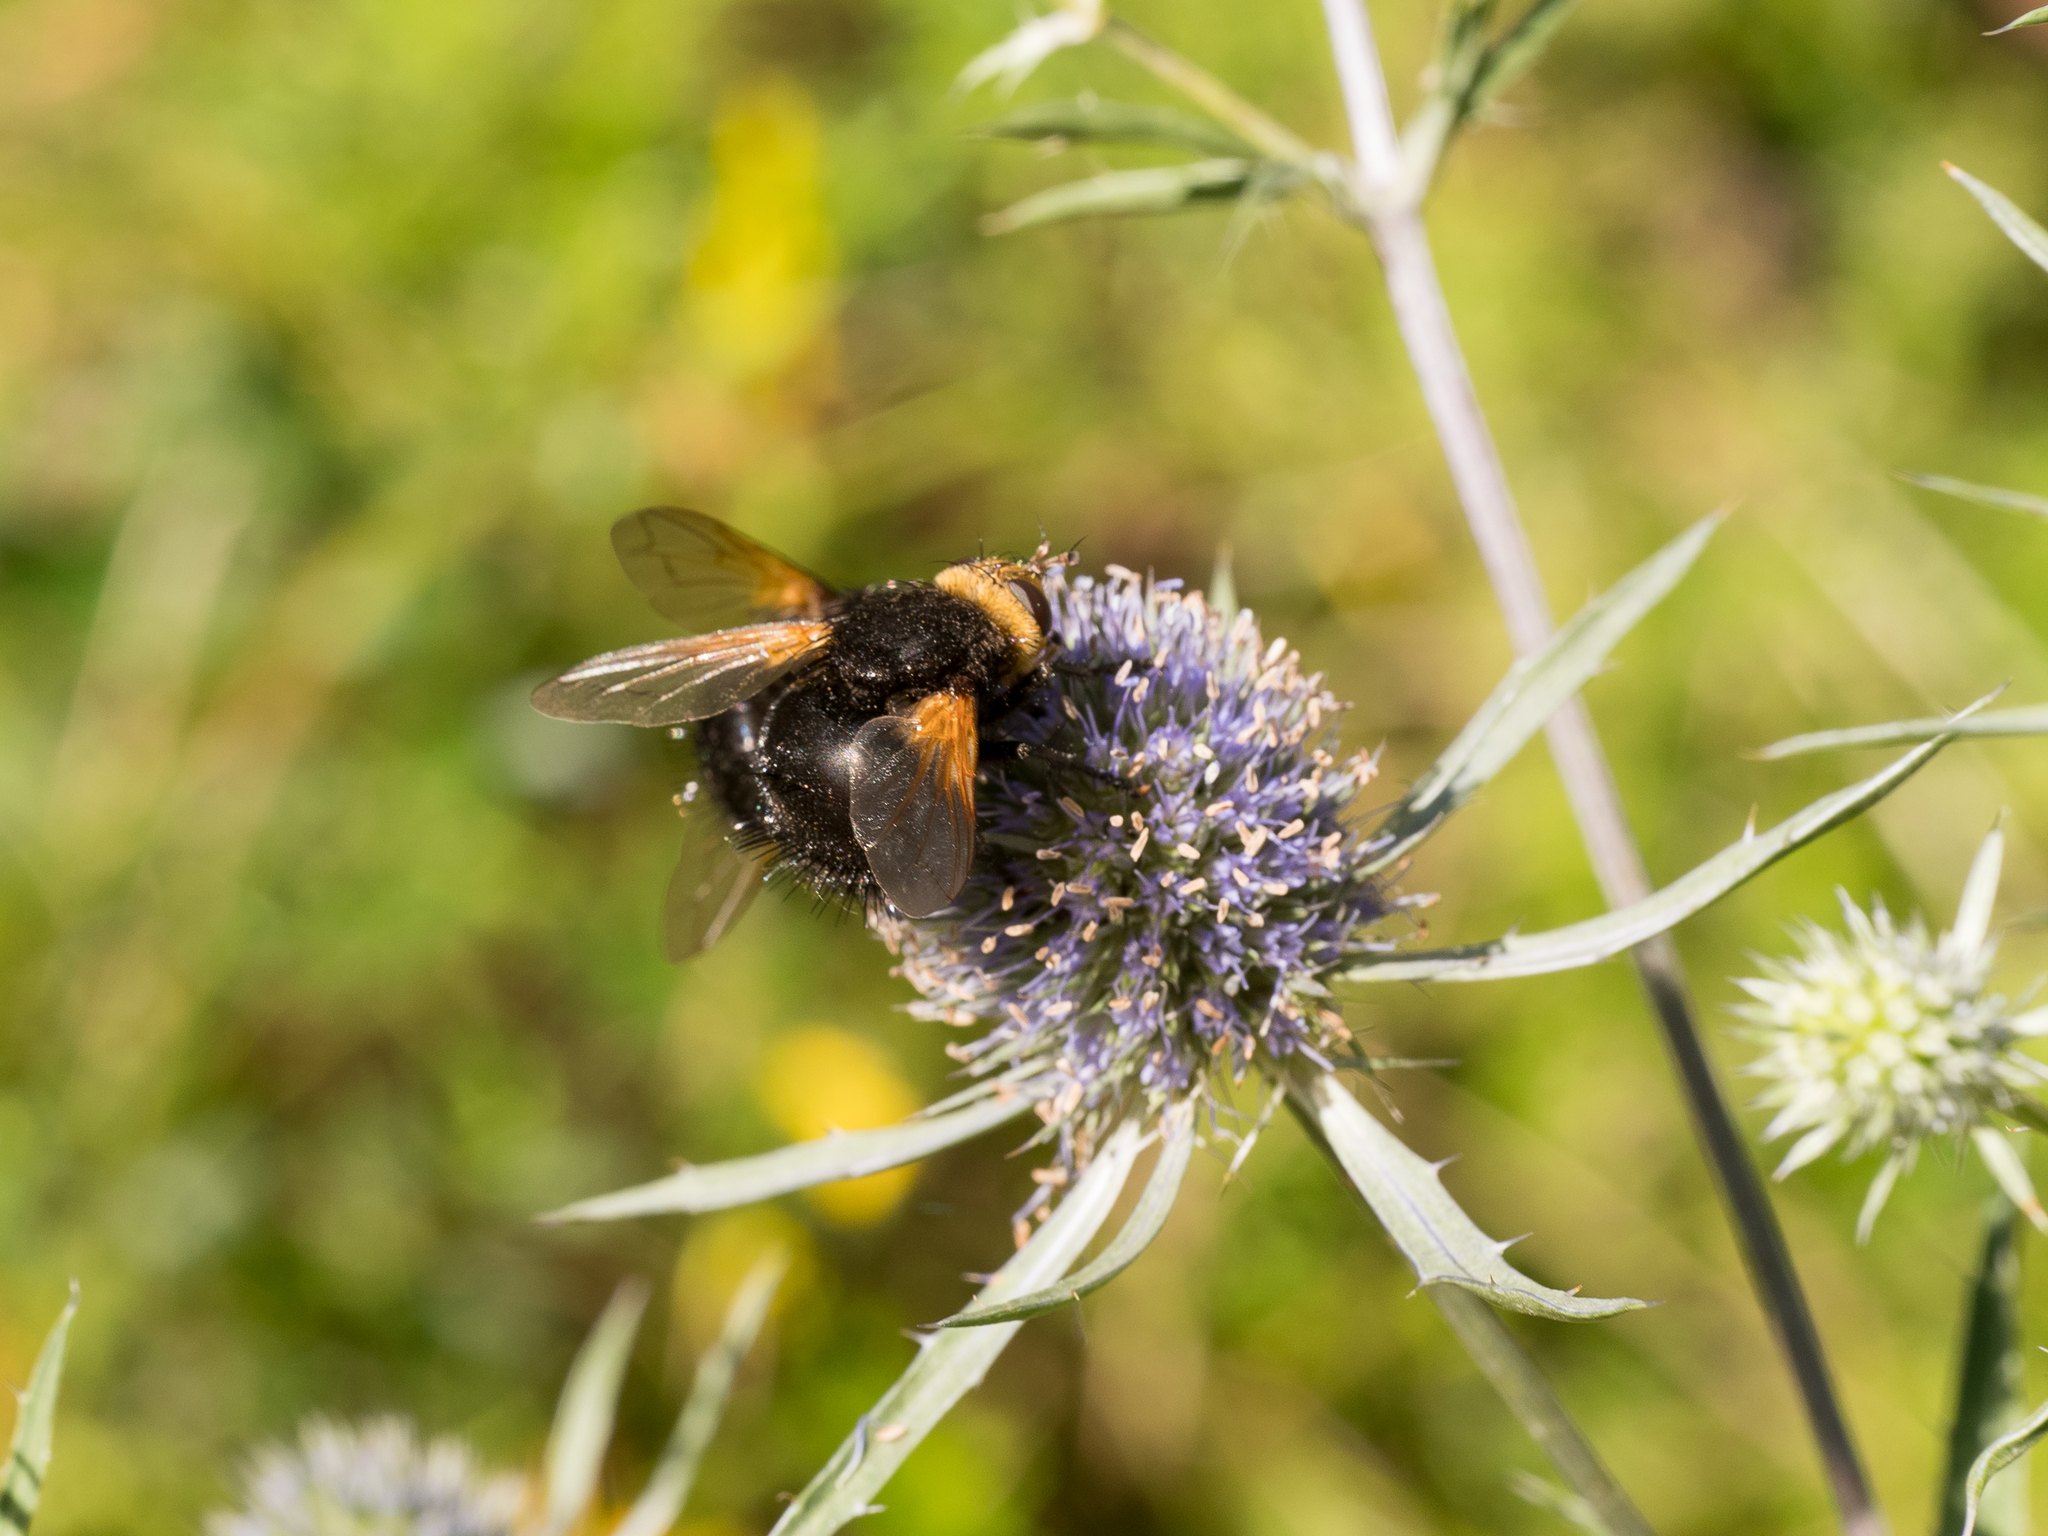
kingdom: Animalia
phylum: Arthropoda
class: Insecta
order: Diptera
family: Tachinidae
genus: Tachina
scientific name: Tachina grossa
